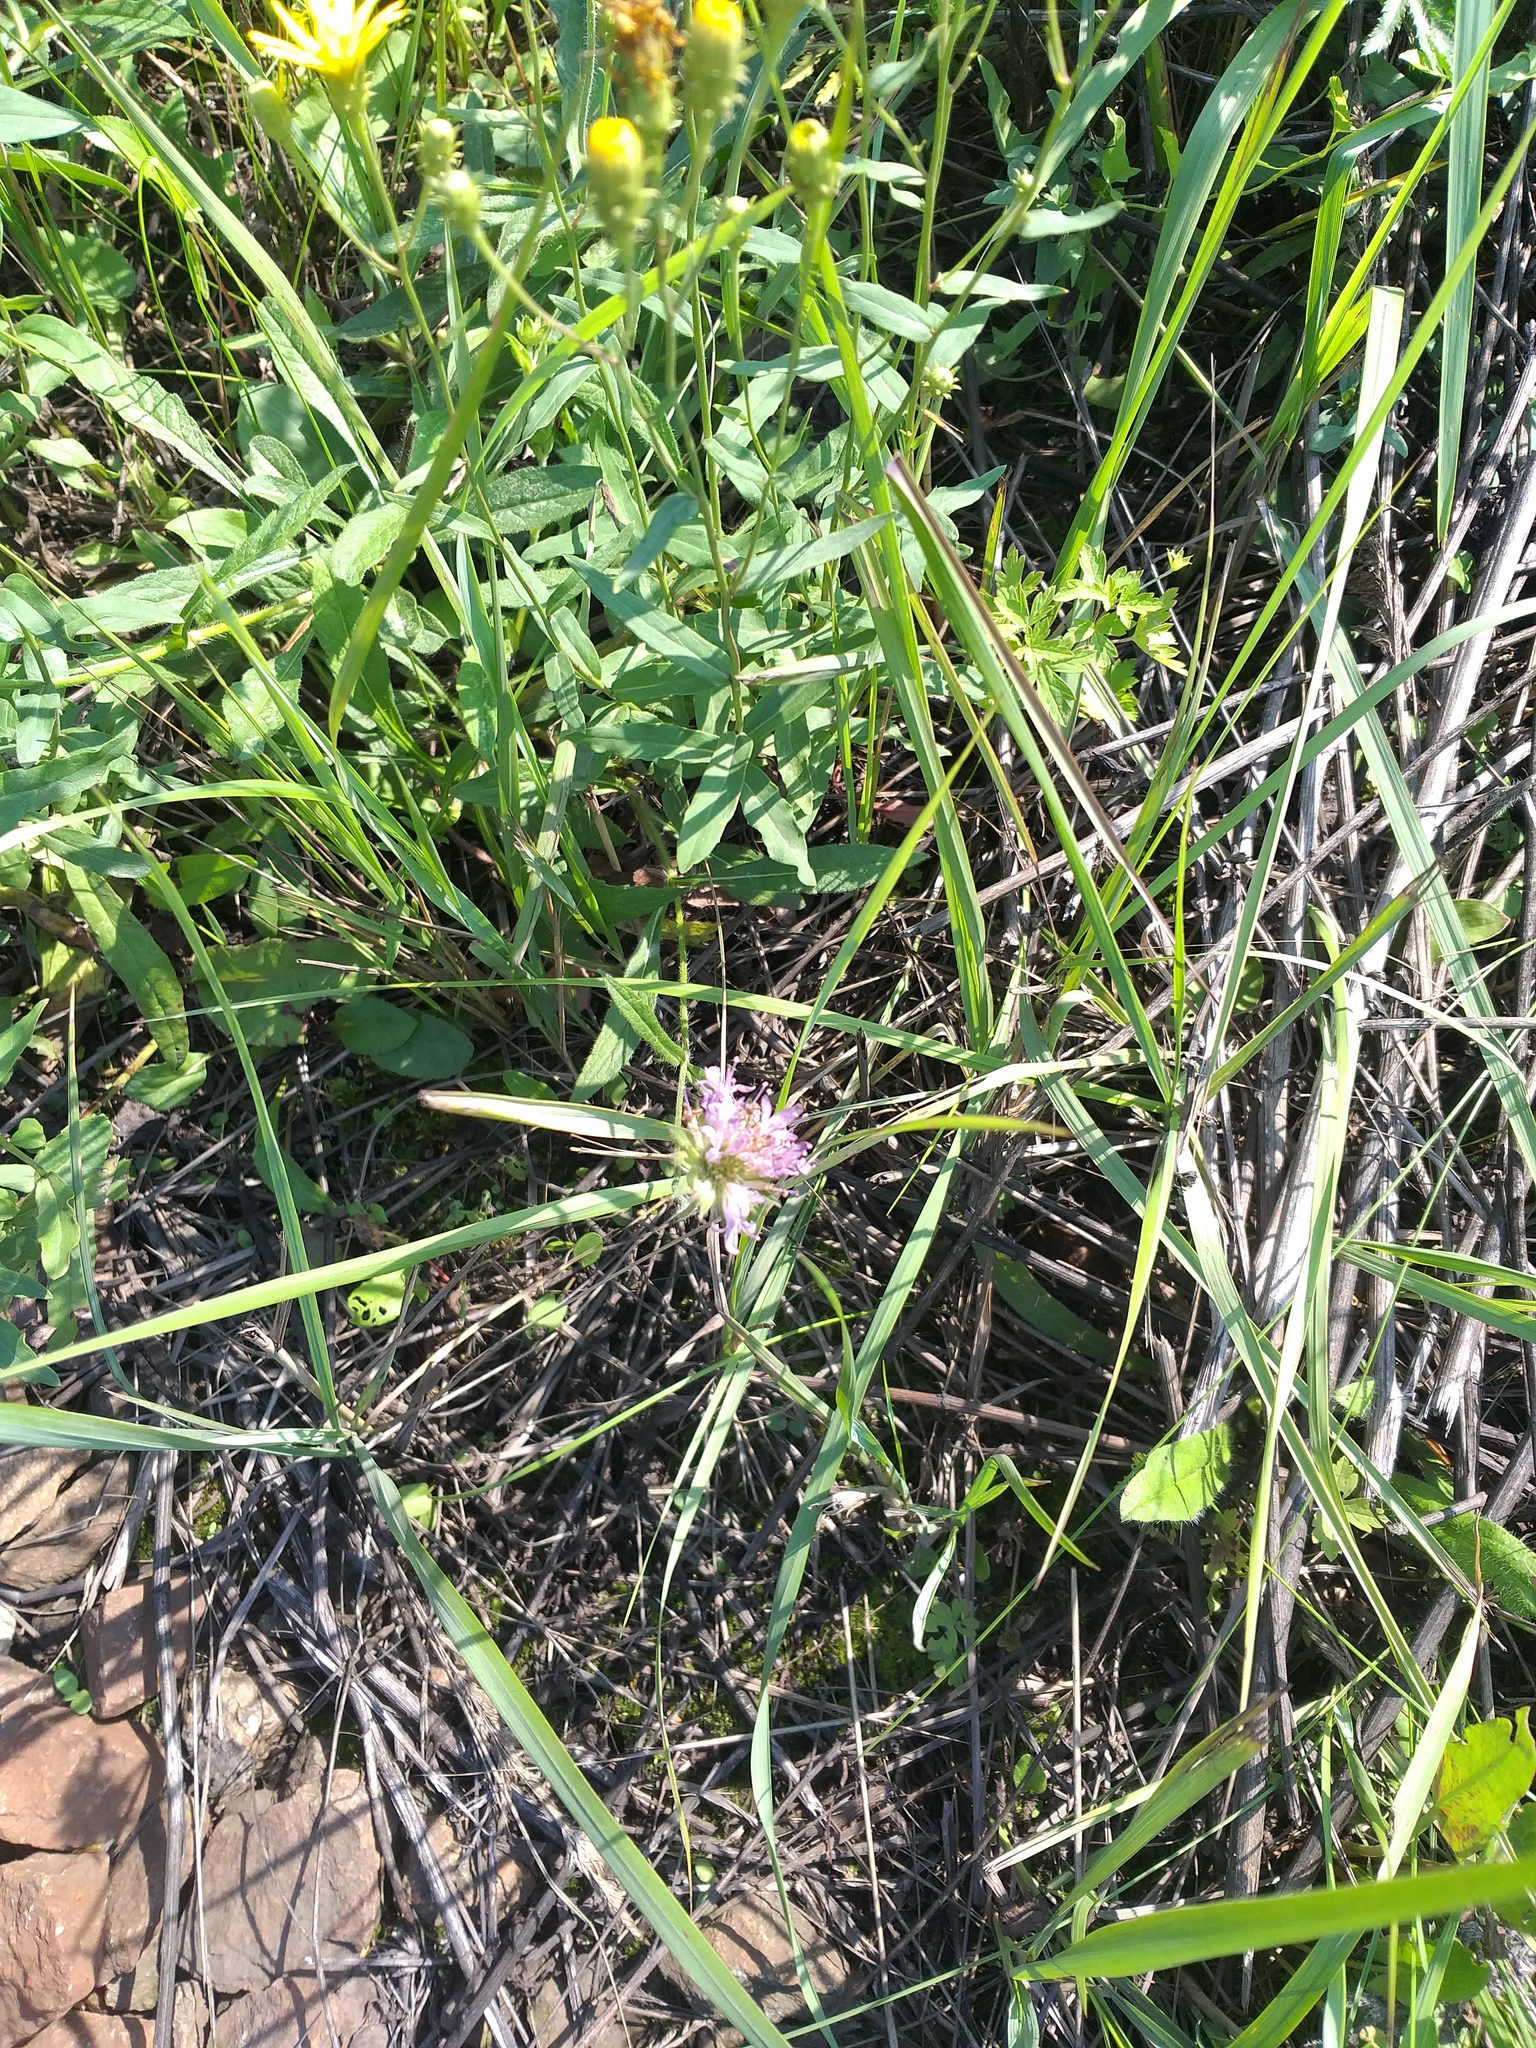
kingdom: Plantae
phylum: Tracheophyta
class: Magnoliopsida
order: Dipsacales
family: Caprifoliaceae
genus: Knautia
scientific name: Knautia arvensis
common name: Field scabiosa
